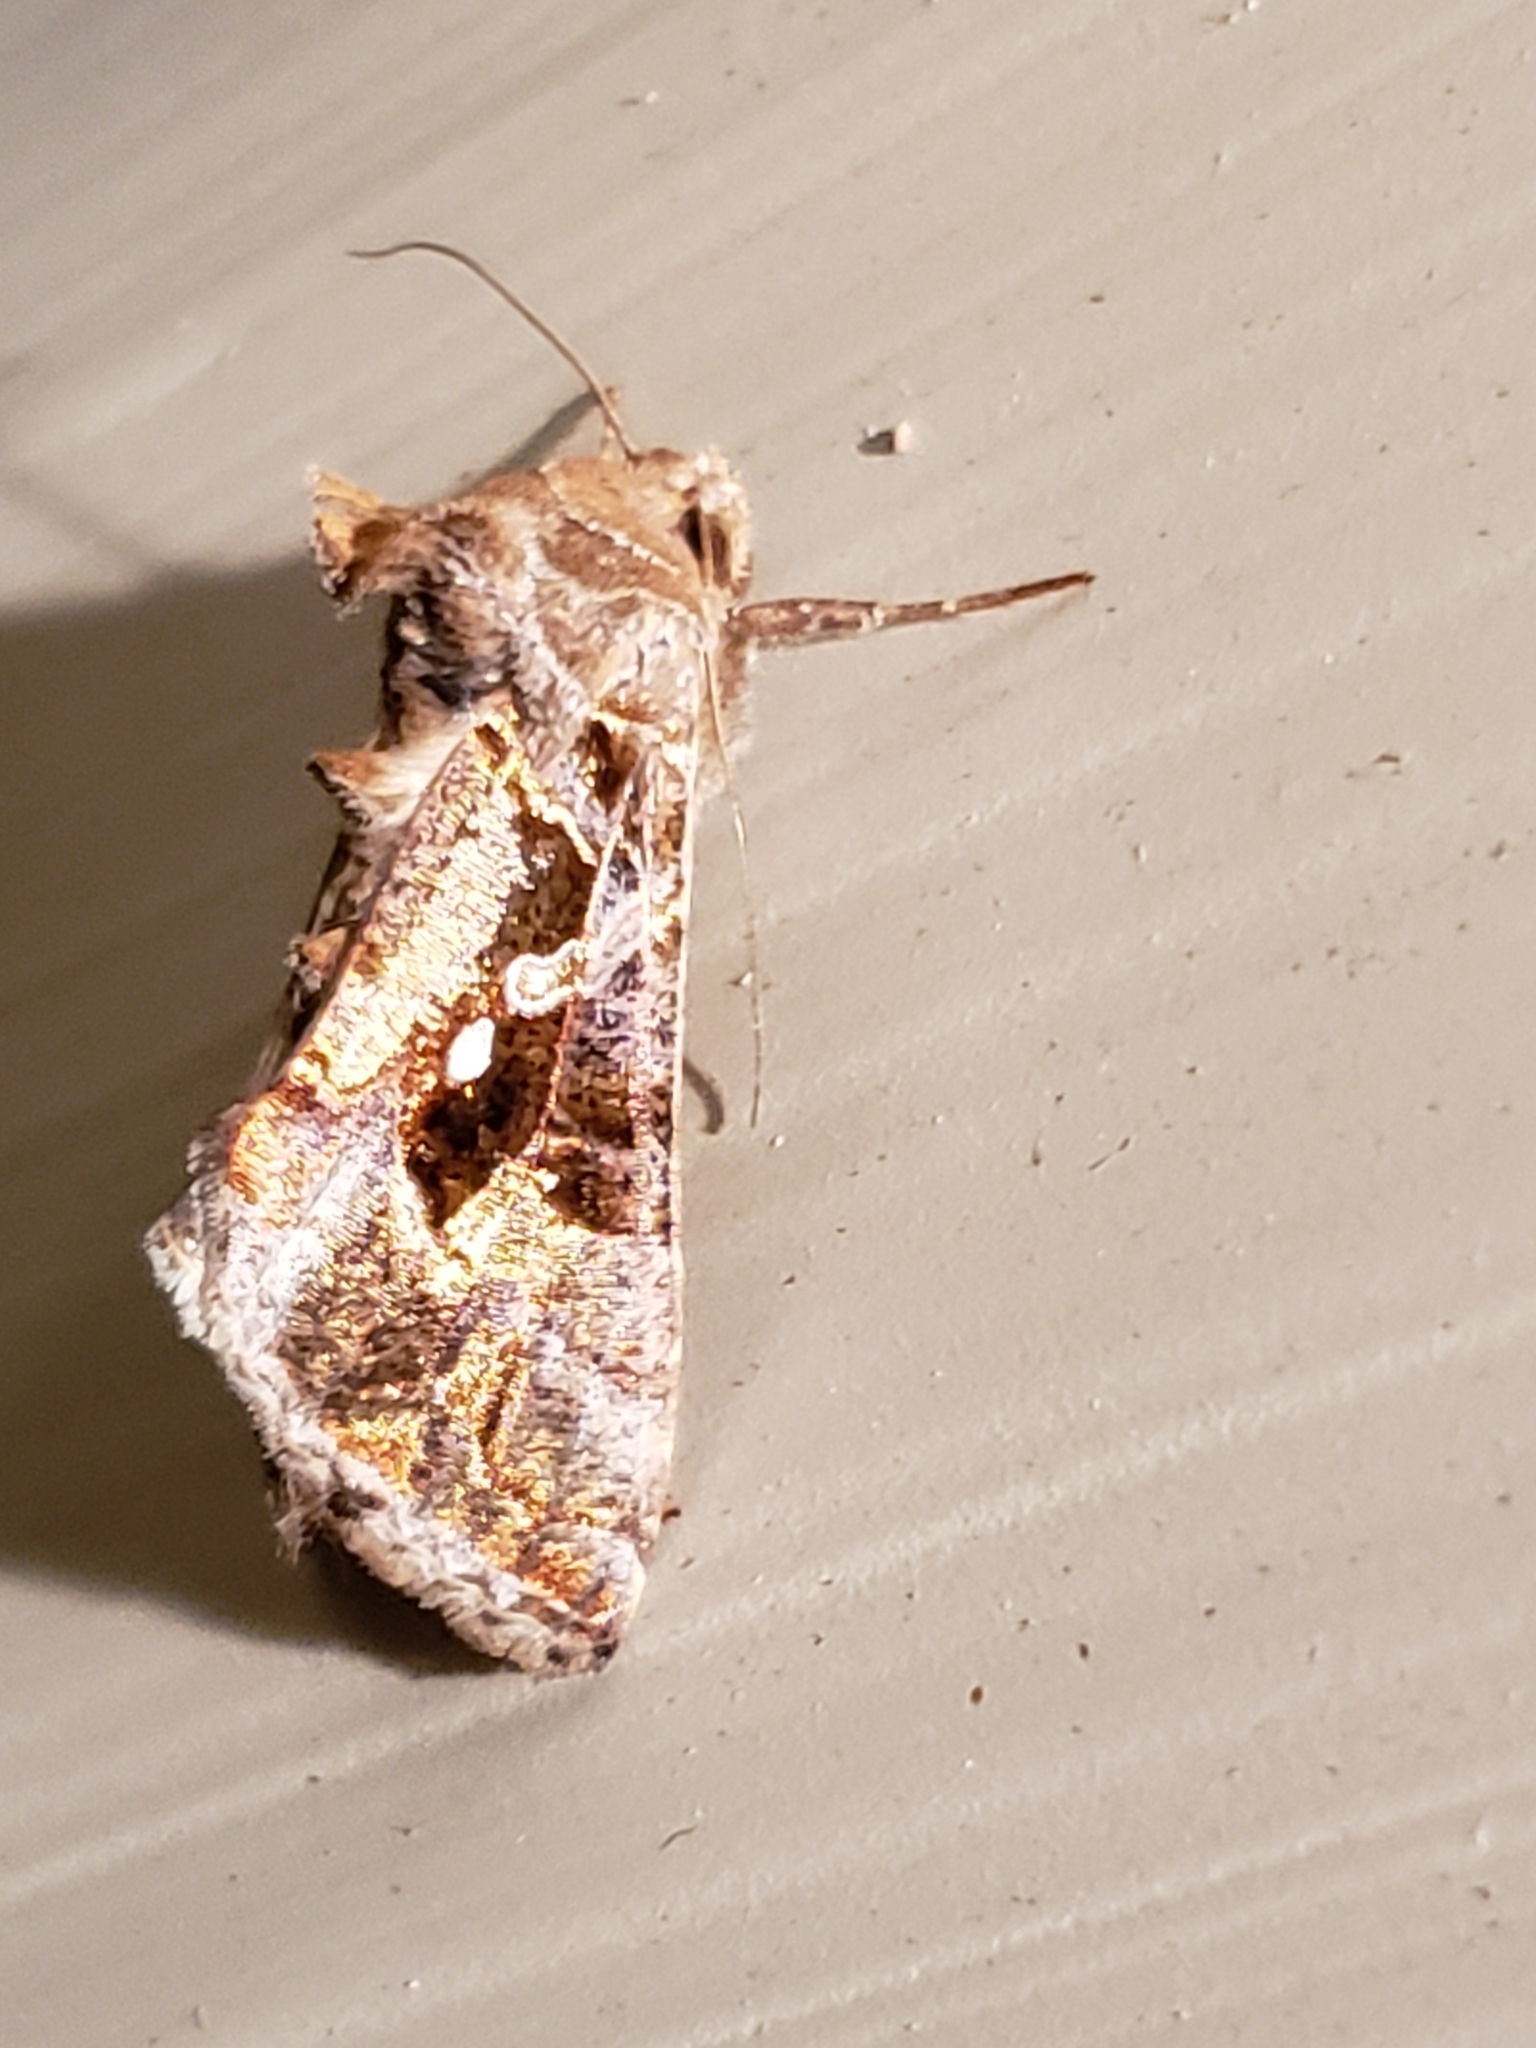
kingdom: Animalia
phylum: Arthropoda
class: Insecta
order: Lepidoptera
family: Noctuidae
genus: Chrysodeixis
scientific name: Chrysodeixis includens
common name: Cutworm moth
